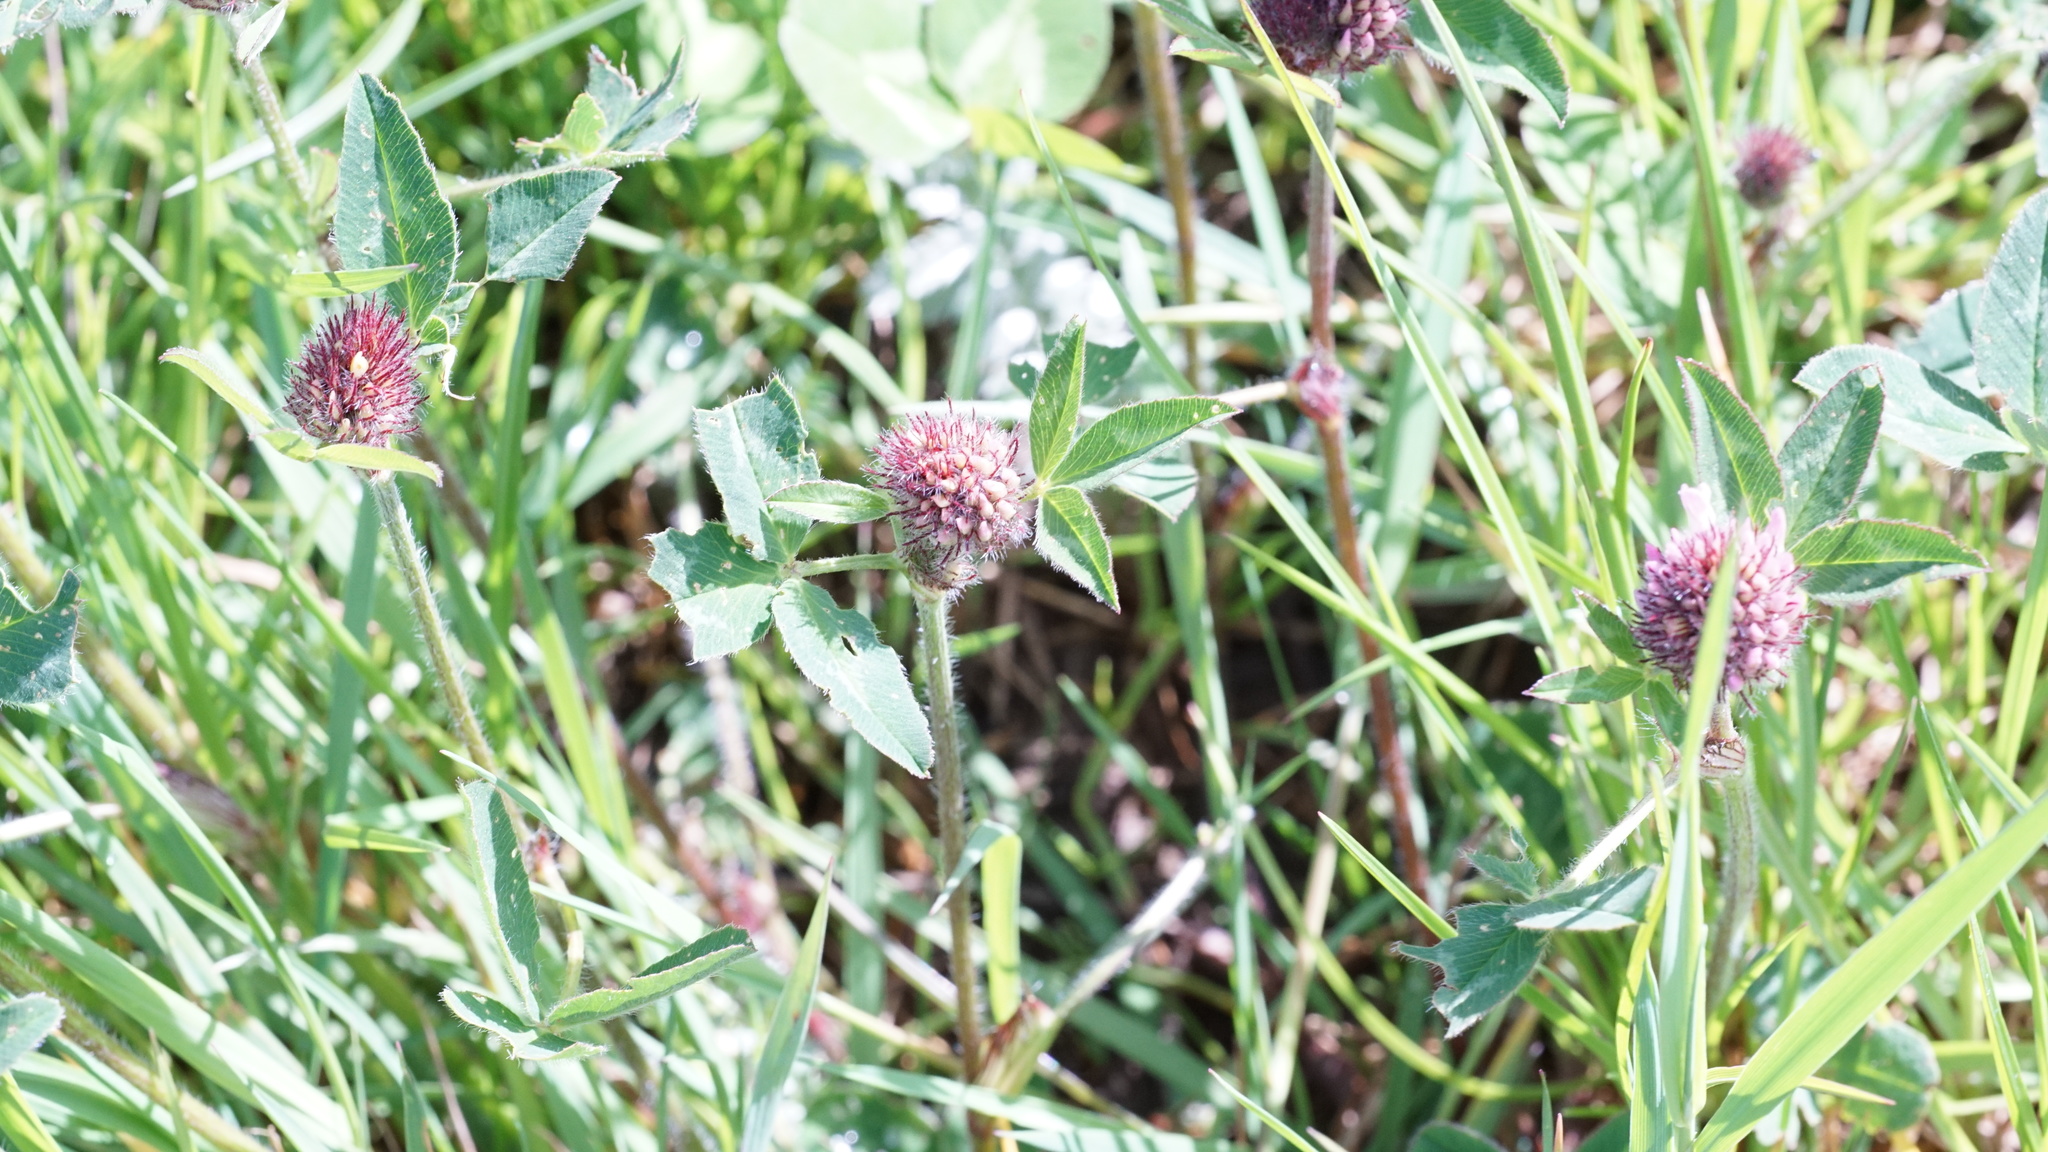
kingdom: Plantae
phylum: Tracheophyta
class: Magnoliopsida
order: Fabales
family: Fabaceae
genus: Trifolium
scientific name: Trifolium pratense
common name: Red clover
